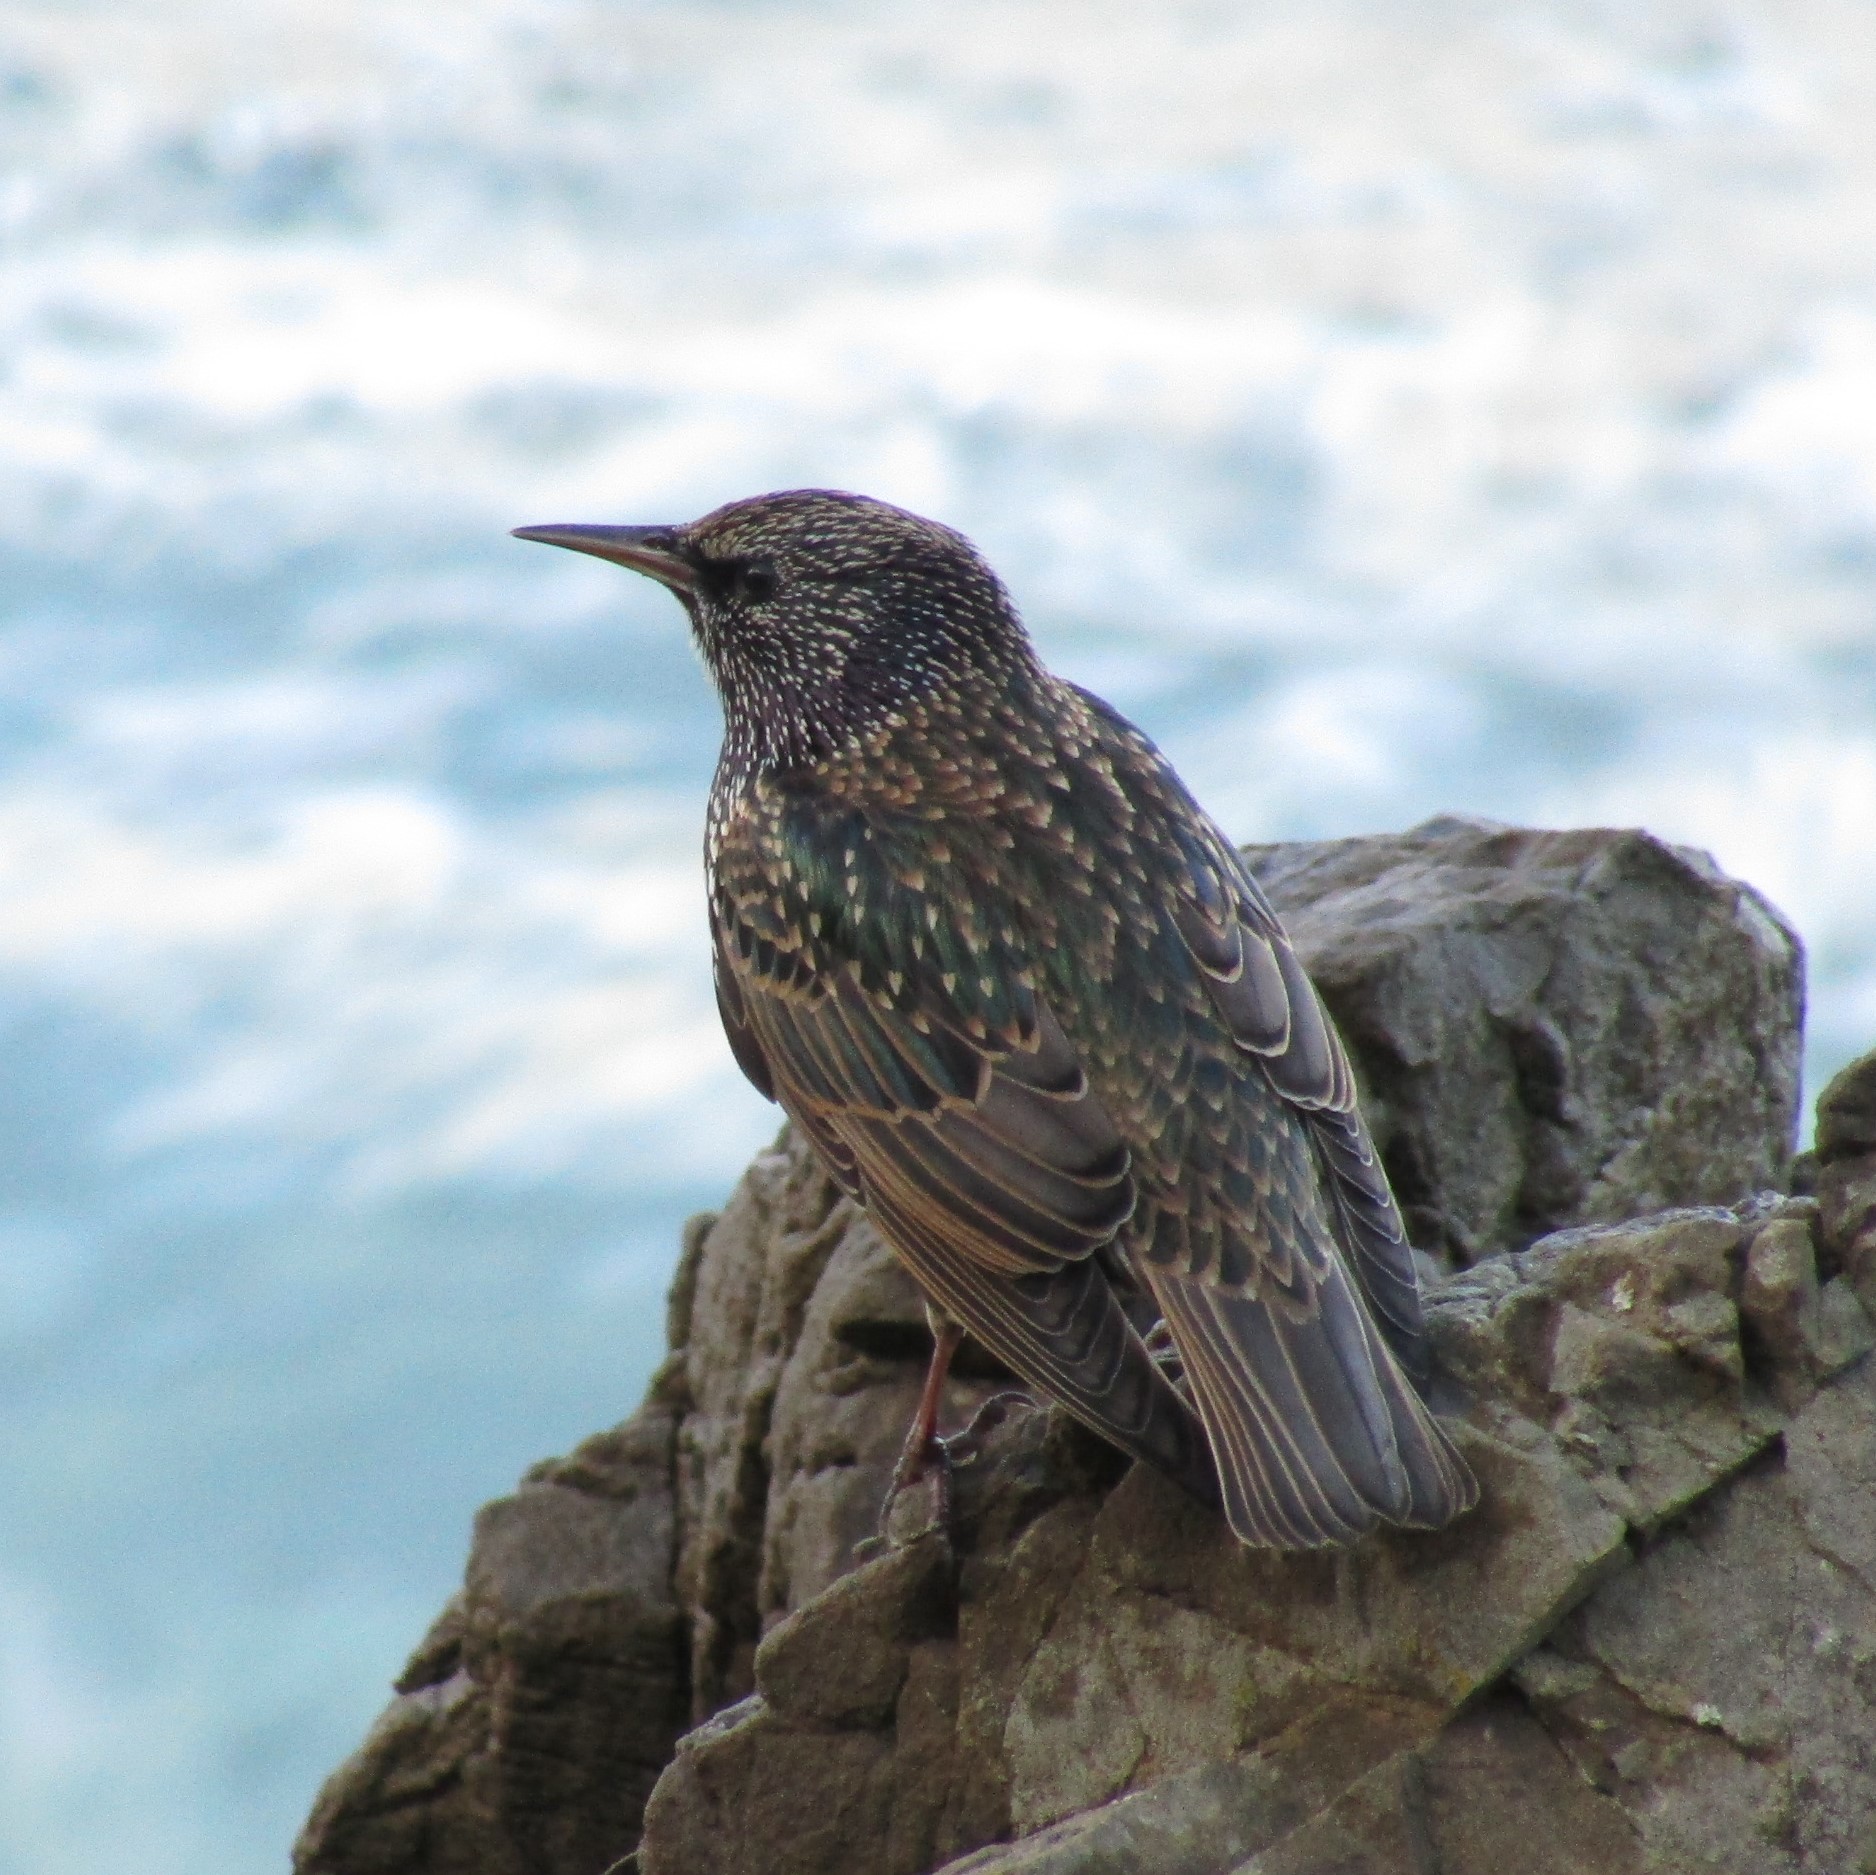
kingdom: Animalia
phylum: Chordata
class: Aves
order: Passeriformes
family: Sturnidae
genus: Sturnus
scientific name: Sturnus vulgaris
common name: Common starling
